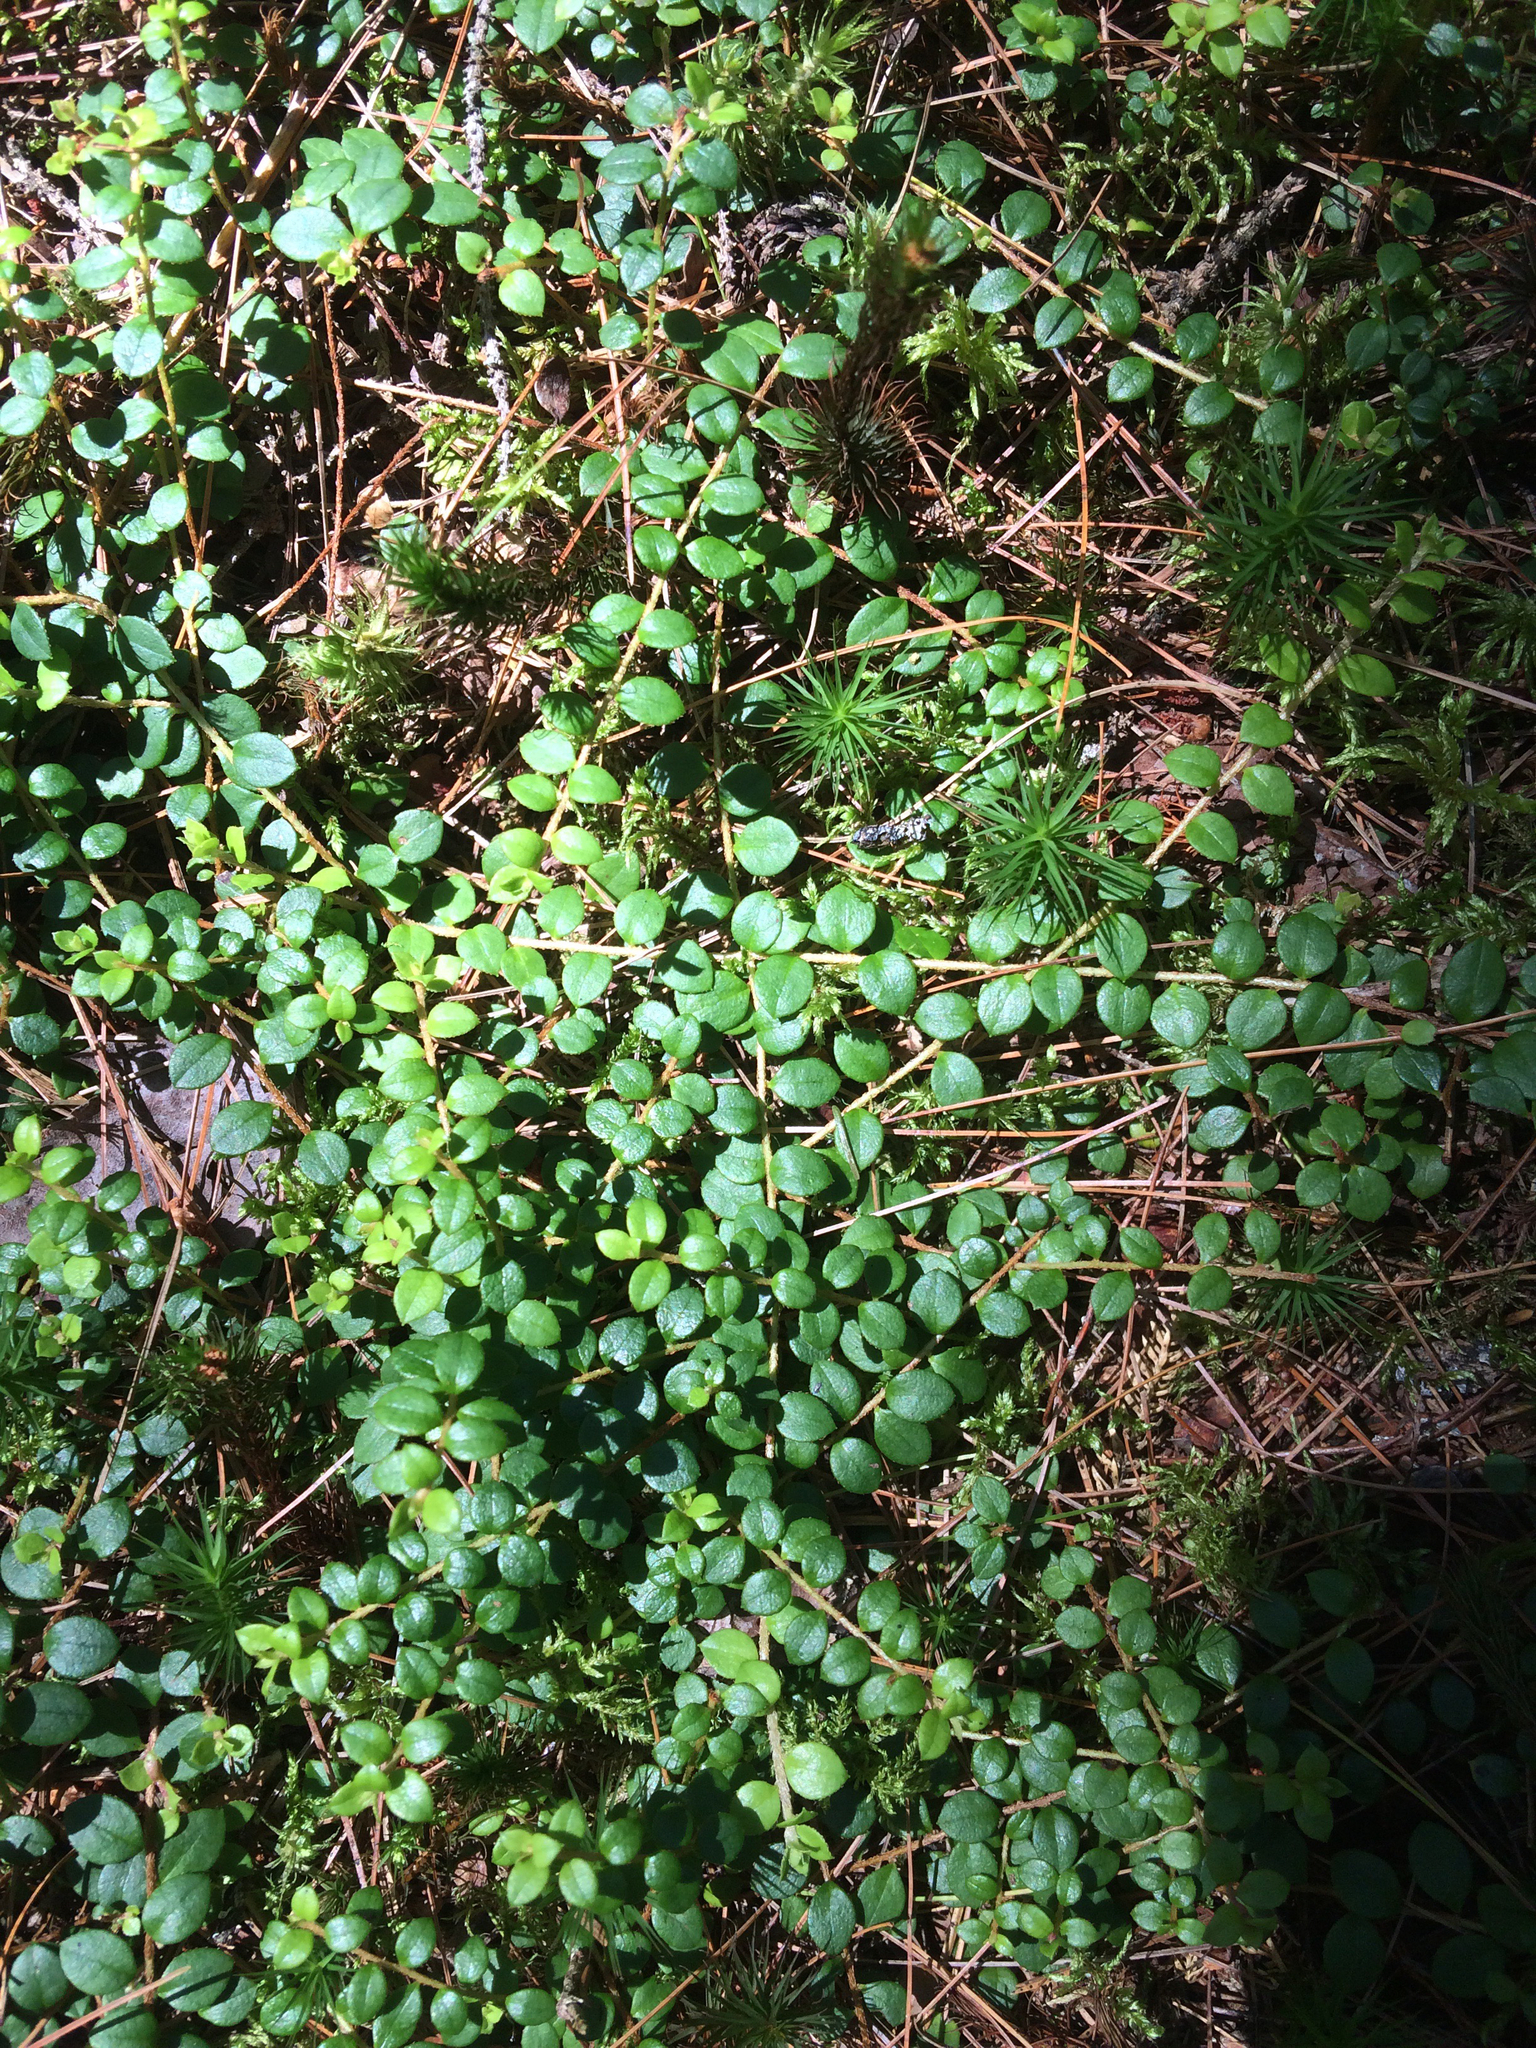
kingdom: Plantae
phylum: Tracheophyta
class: Magnoliopsida
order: Ericales
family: Ericaceae
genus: Gaultheria
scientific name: Gaultheria hispidula
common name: Cancer wintergreen
